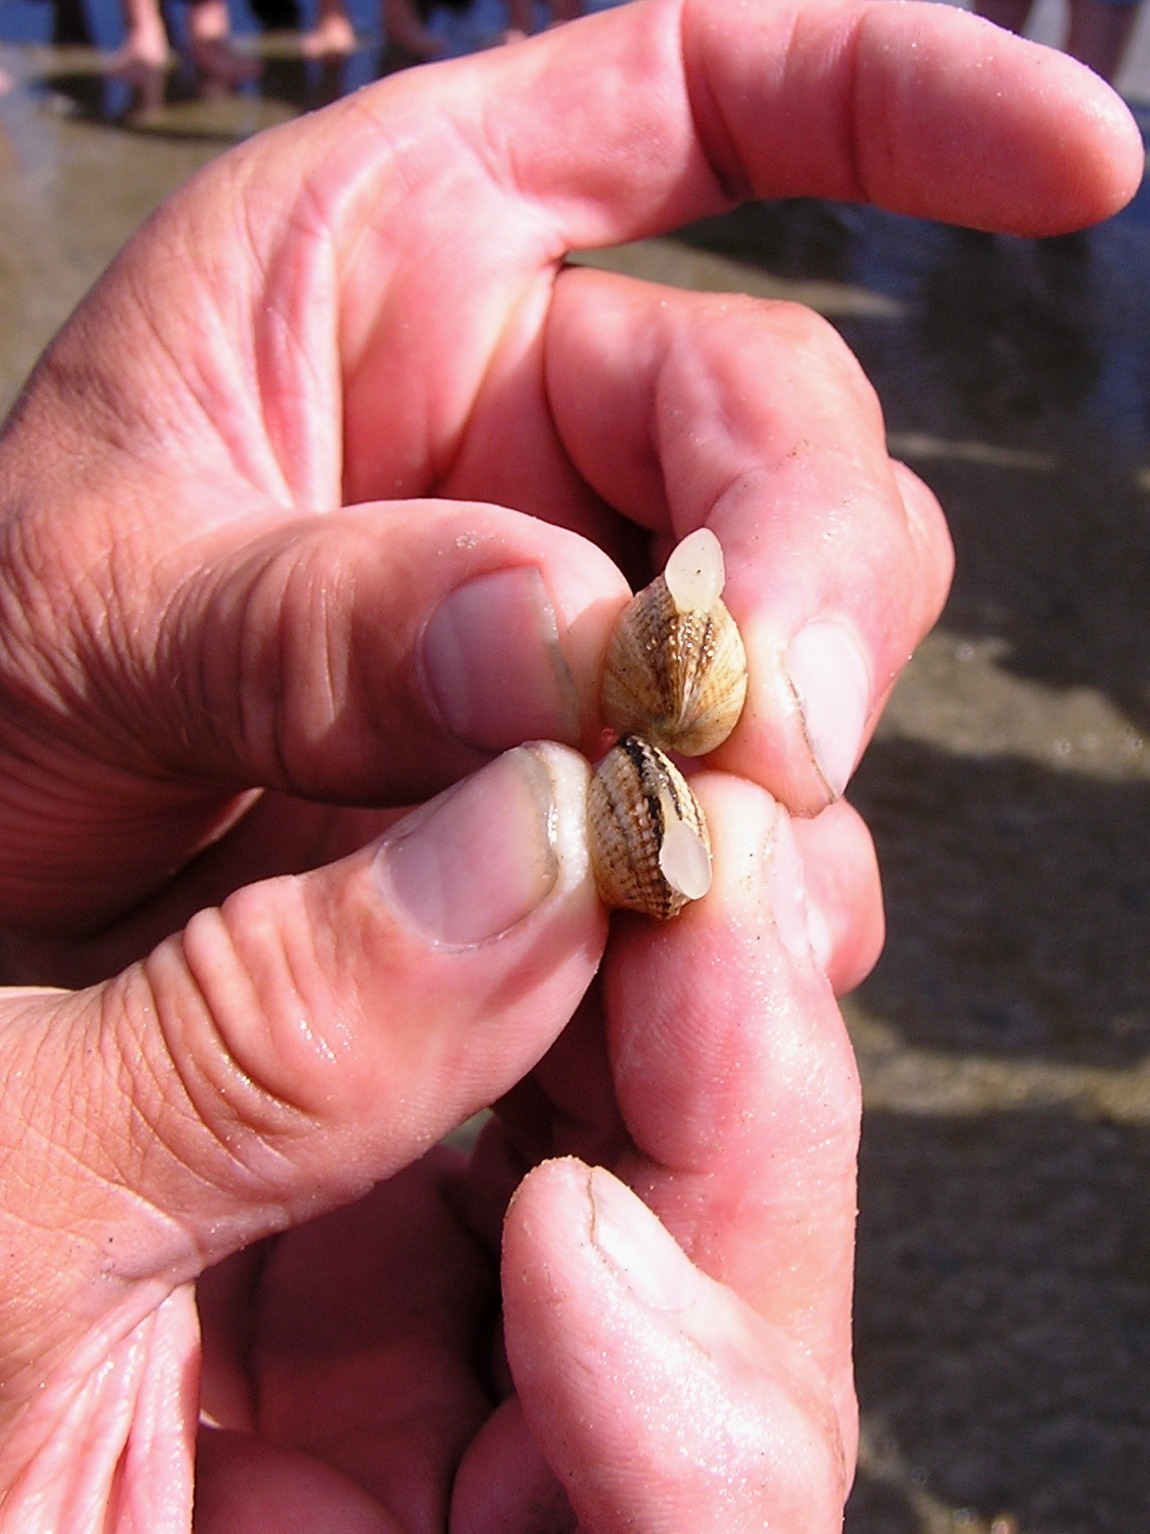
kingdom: Animalia
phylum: Mollusca
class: Bivalvia
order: Cardiida
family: Cardiidae
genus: Cerastoderma
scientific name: Cerastoderma edule
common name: Common cockle
